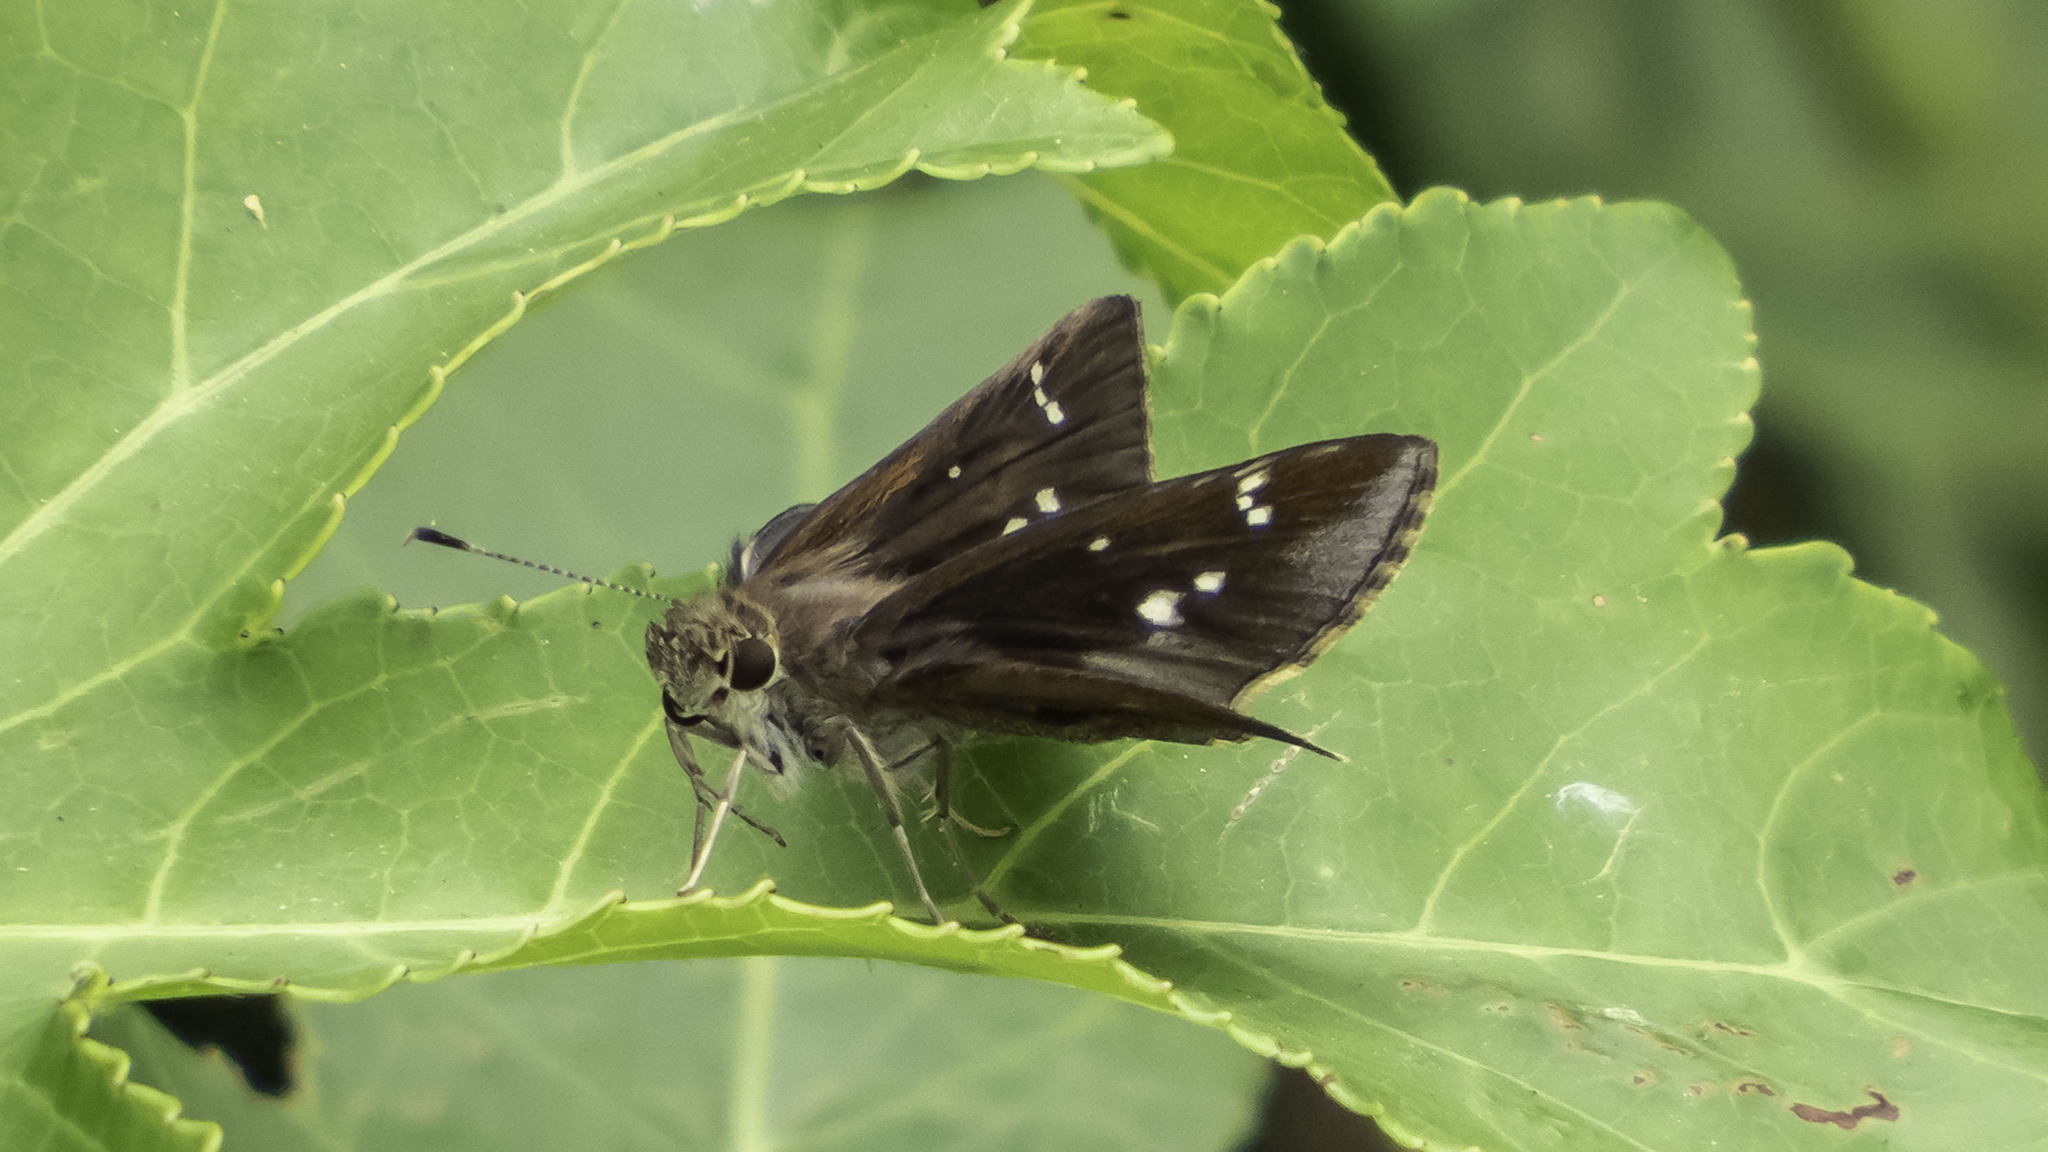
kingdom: Animalia
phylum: Arthropoda
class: Insecta
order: Lepidoptera
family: Hesperiidae
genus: Lerema
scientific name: Lerema accius
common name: Clouded skipper
